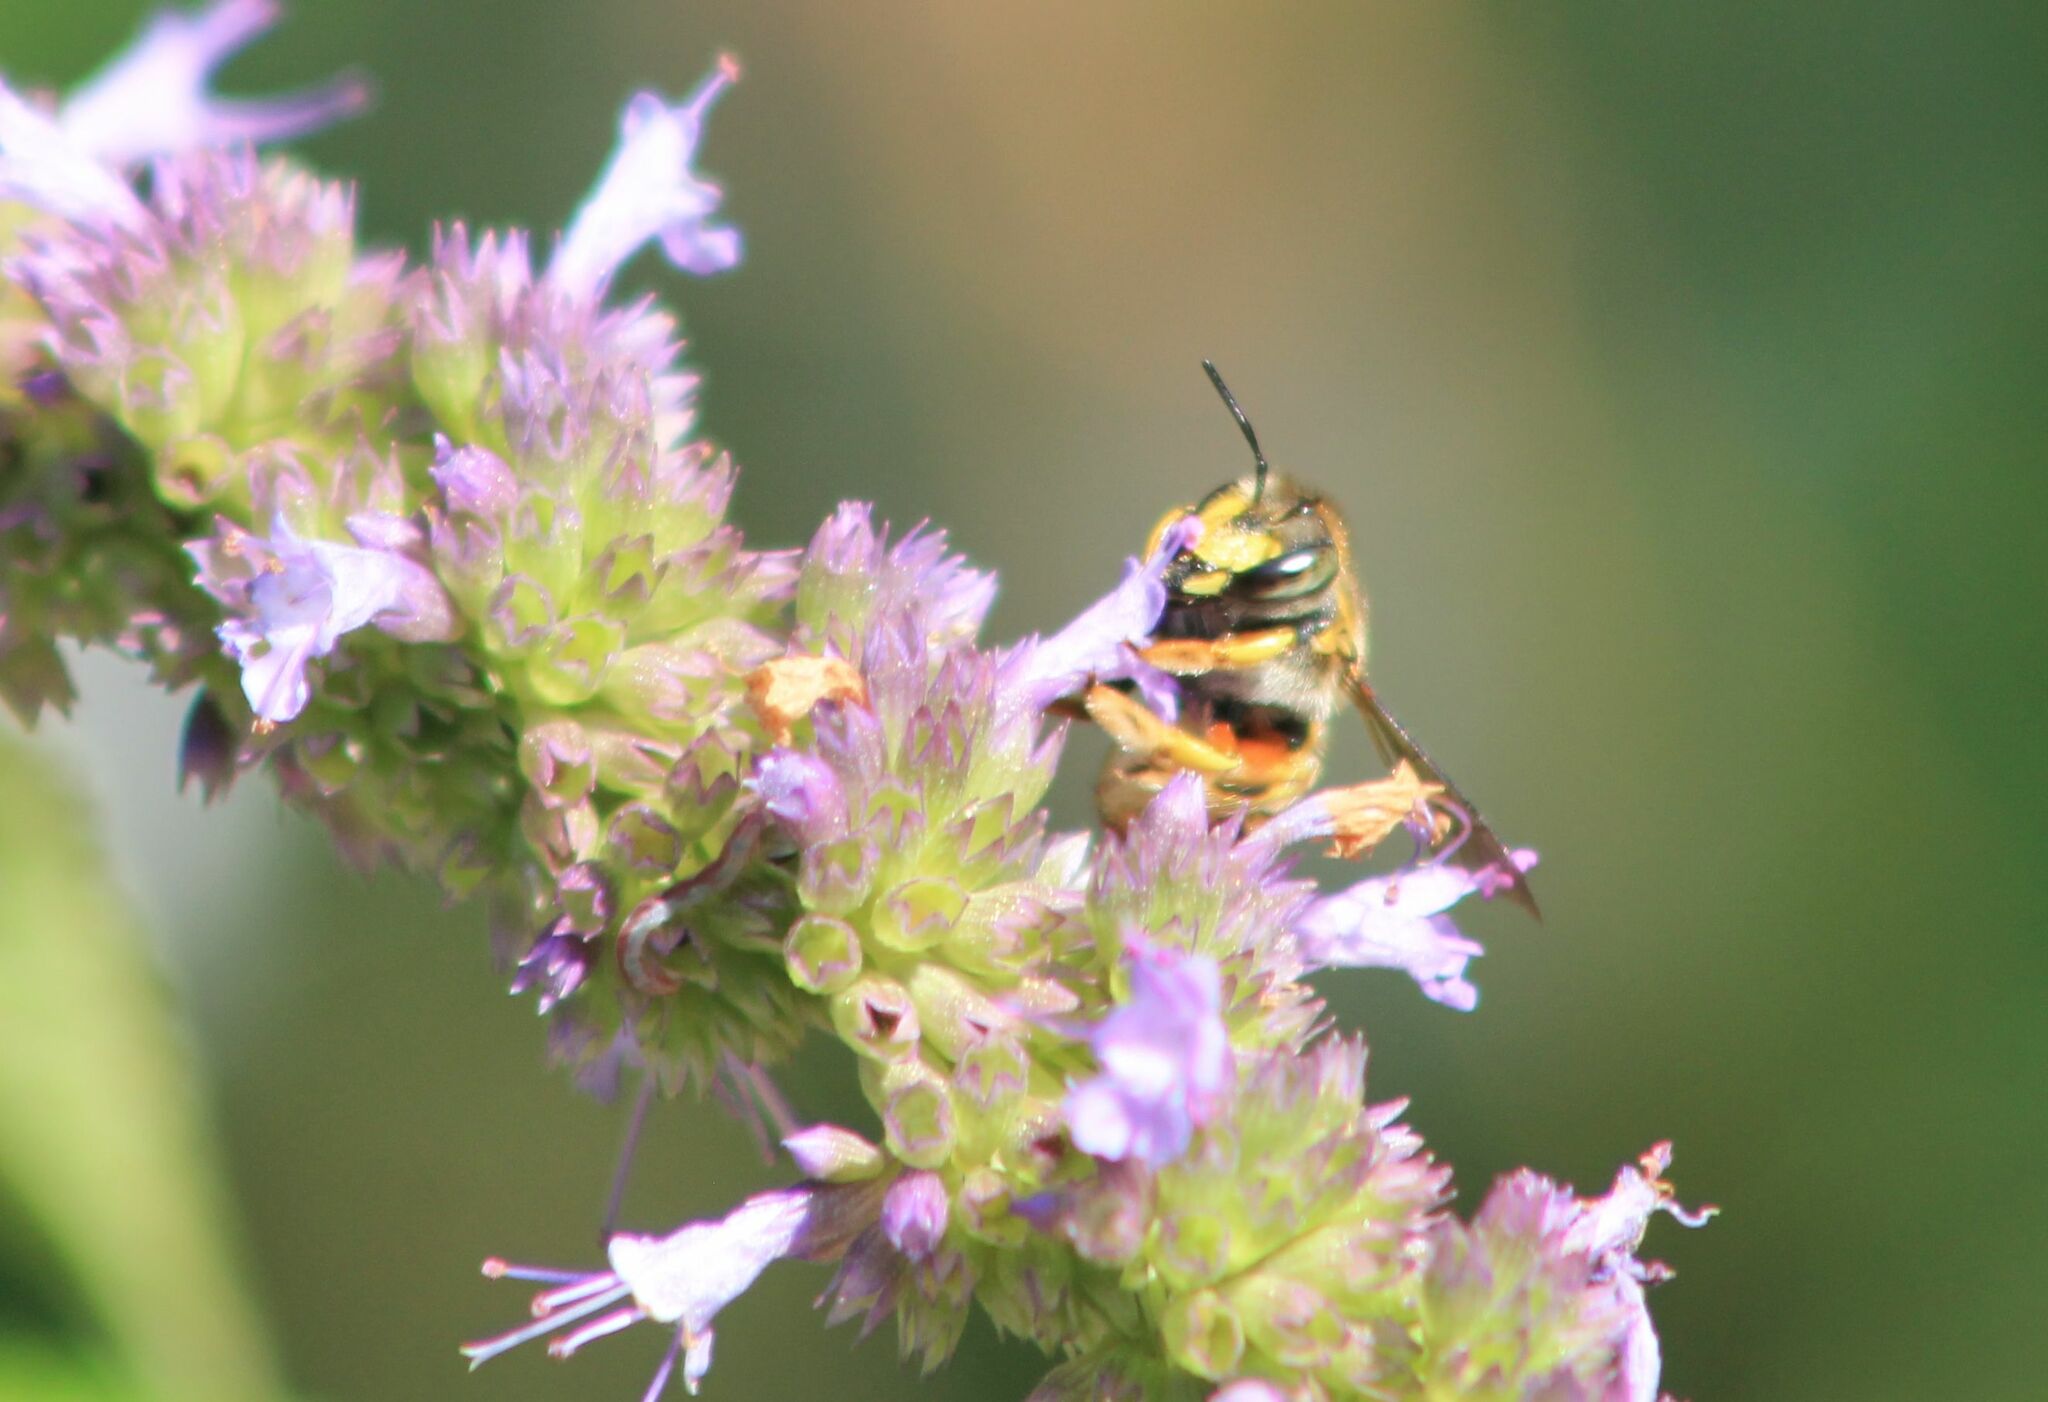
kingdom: Animalia
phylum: Arthropoda
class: Insecta
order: Hymenoptera
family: Megachilidae
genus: Anthidium
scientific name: Anthidium manicatum
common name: Wool carder bee
